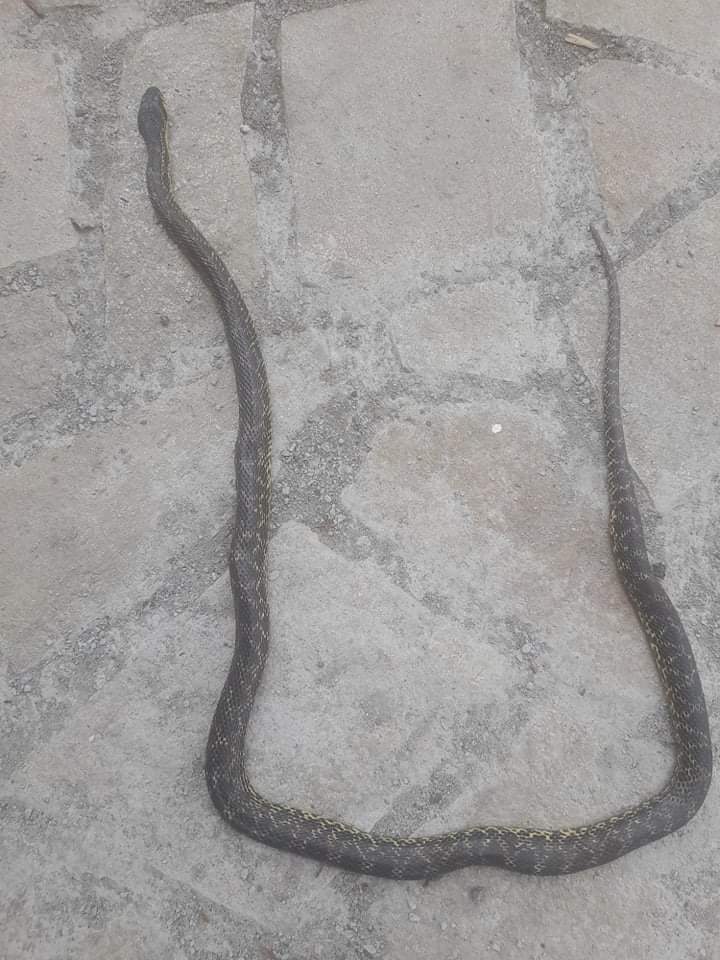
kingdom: Animalia
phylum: Chordata
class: Squamata
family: Colubridae
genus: Elaphe
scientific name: Elaphe sauromates
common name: Eastern four-lined ratsnake
